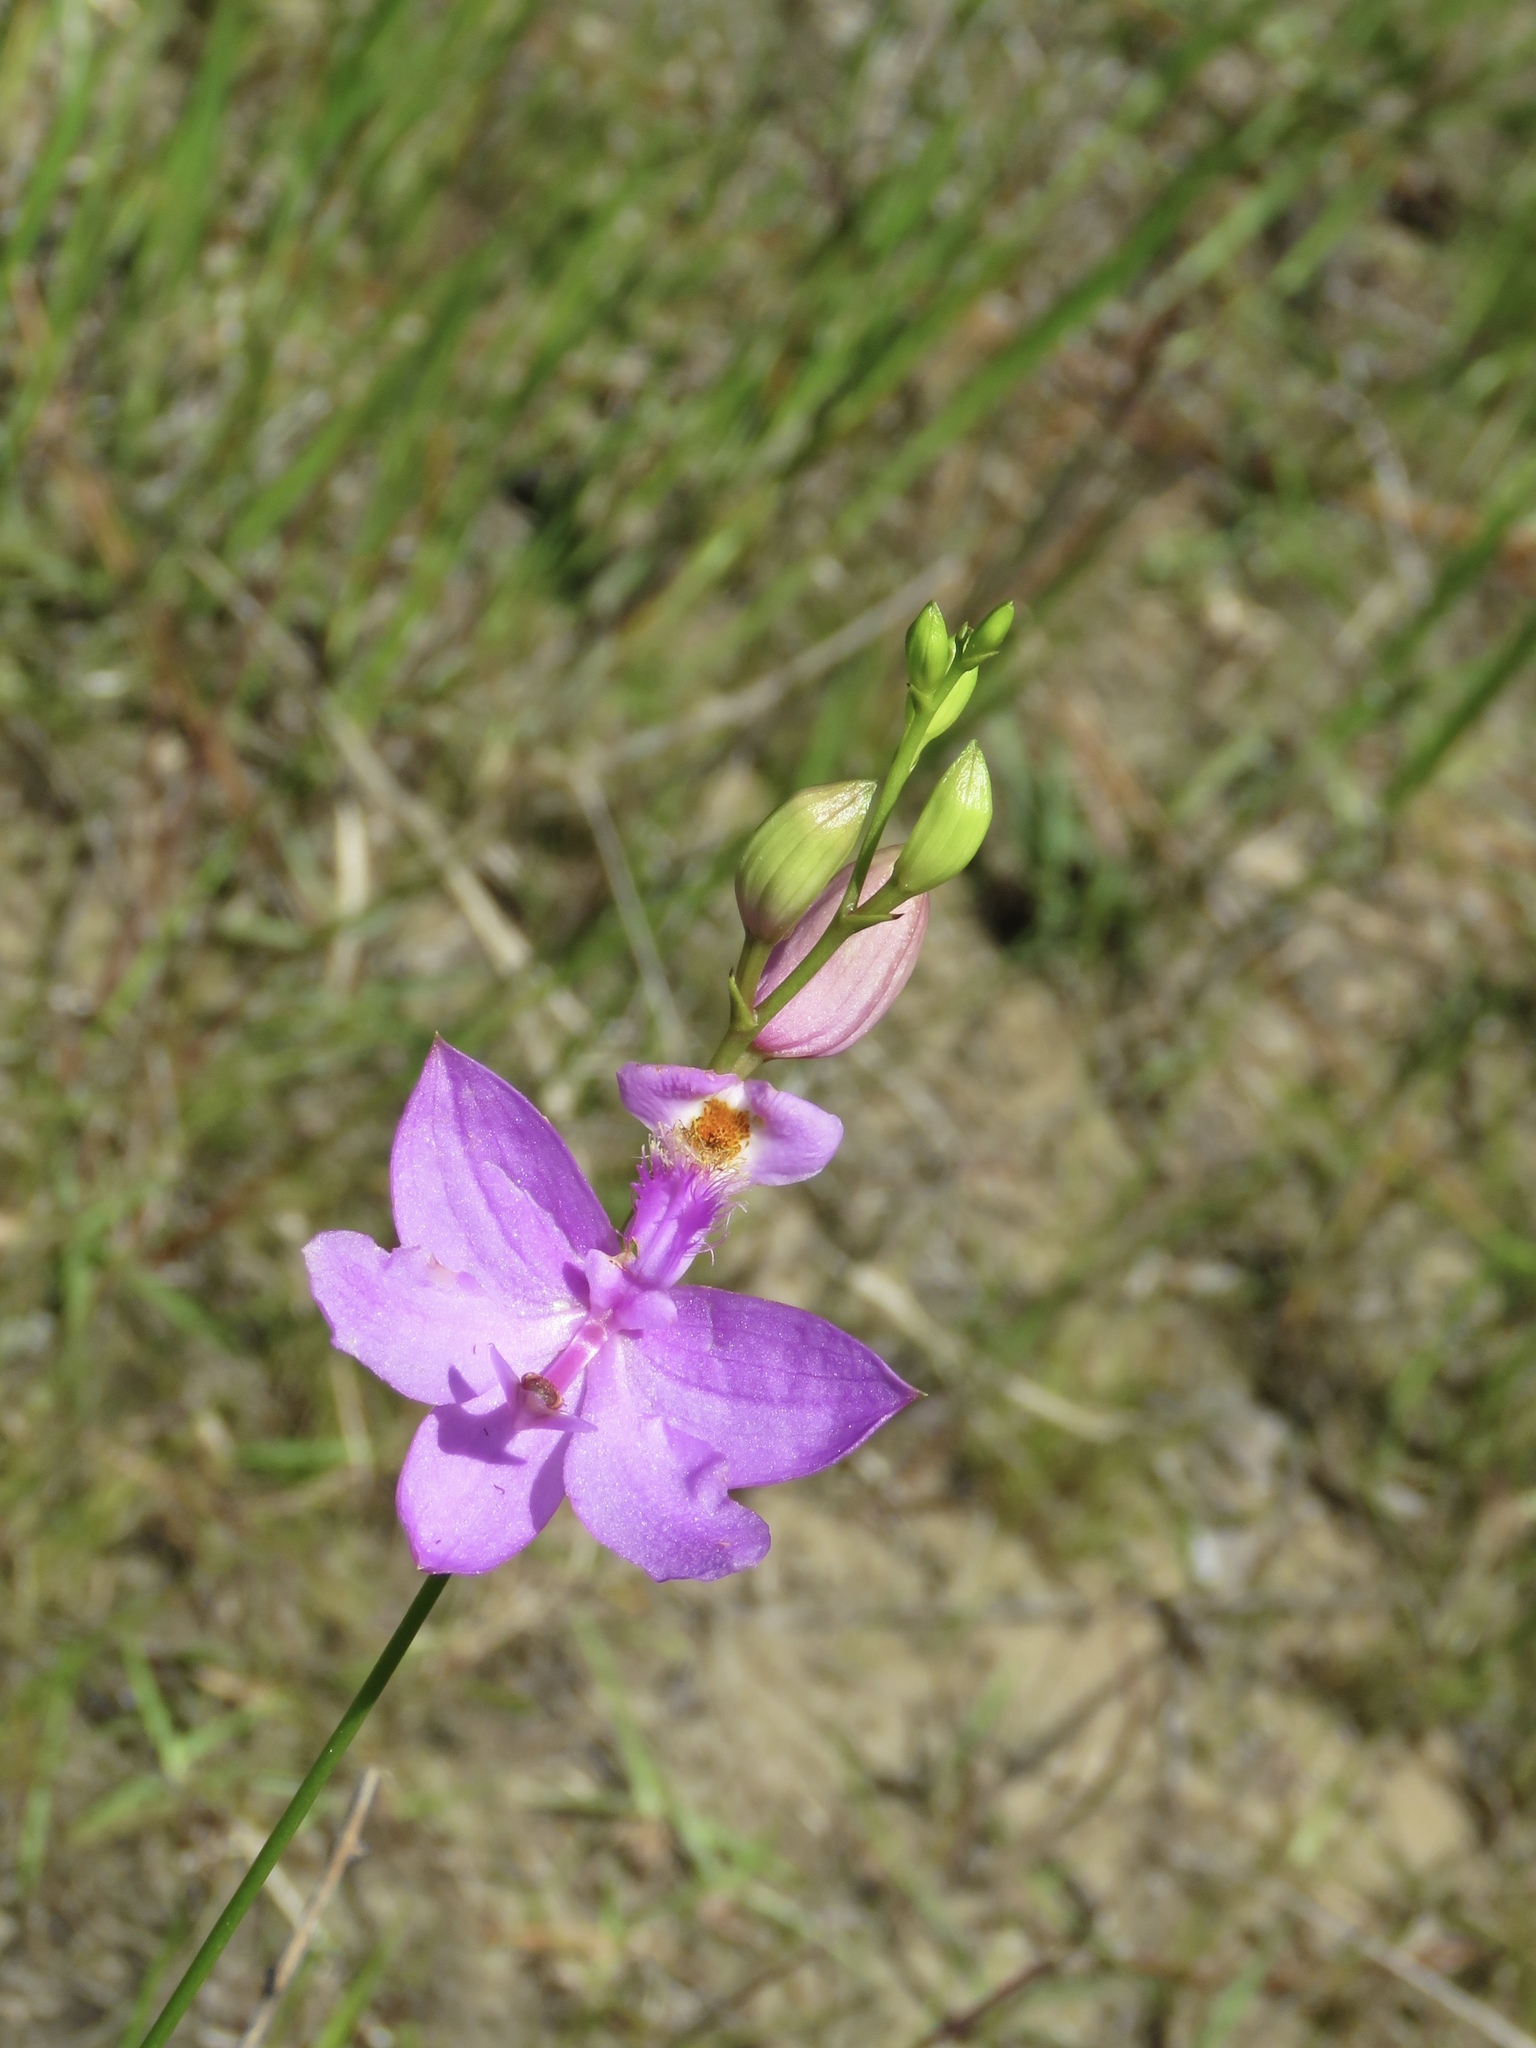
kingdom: Plantae
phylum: Tracheophyta
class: Liliopsida
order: Asparagales
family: Orchidaceae
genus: Calopogon
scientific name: Calopogon tuberosus
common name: Grass-pink
